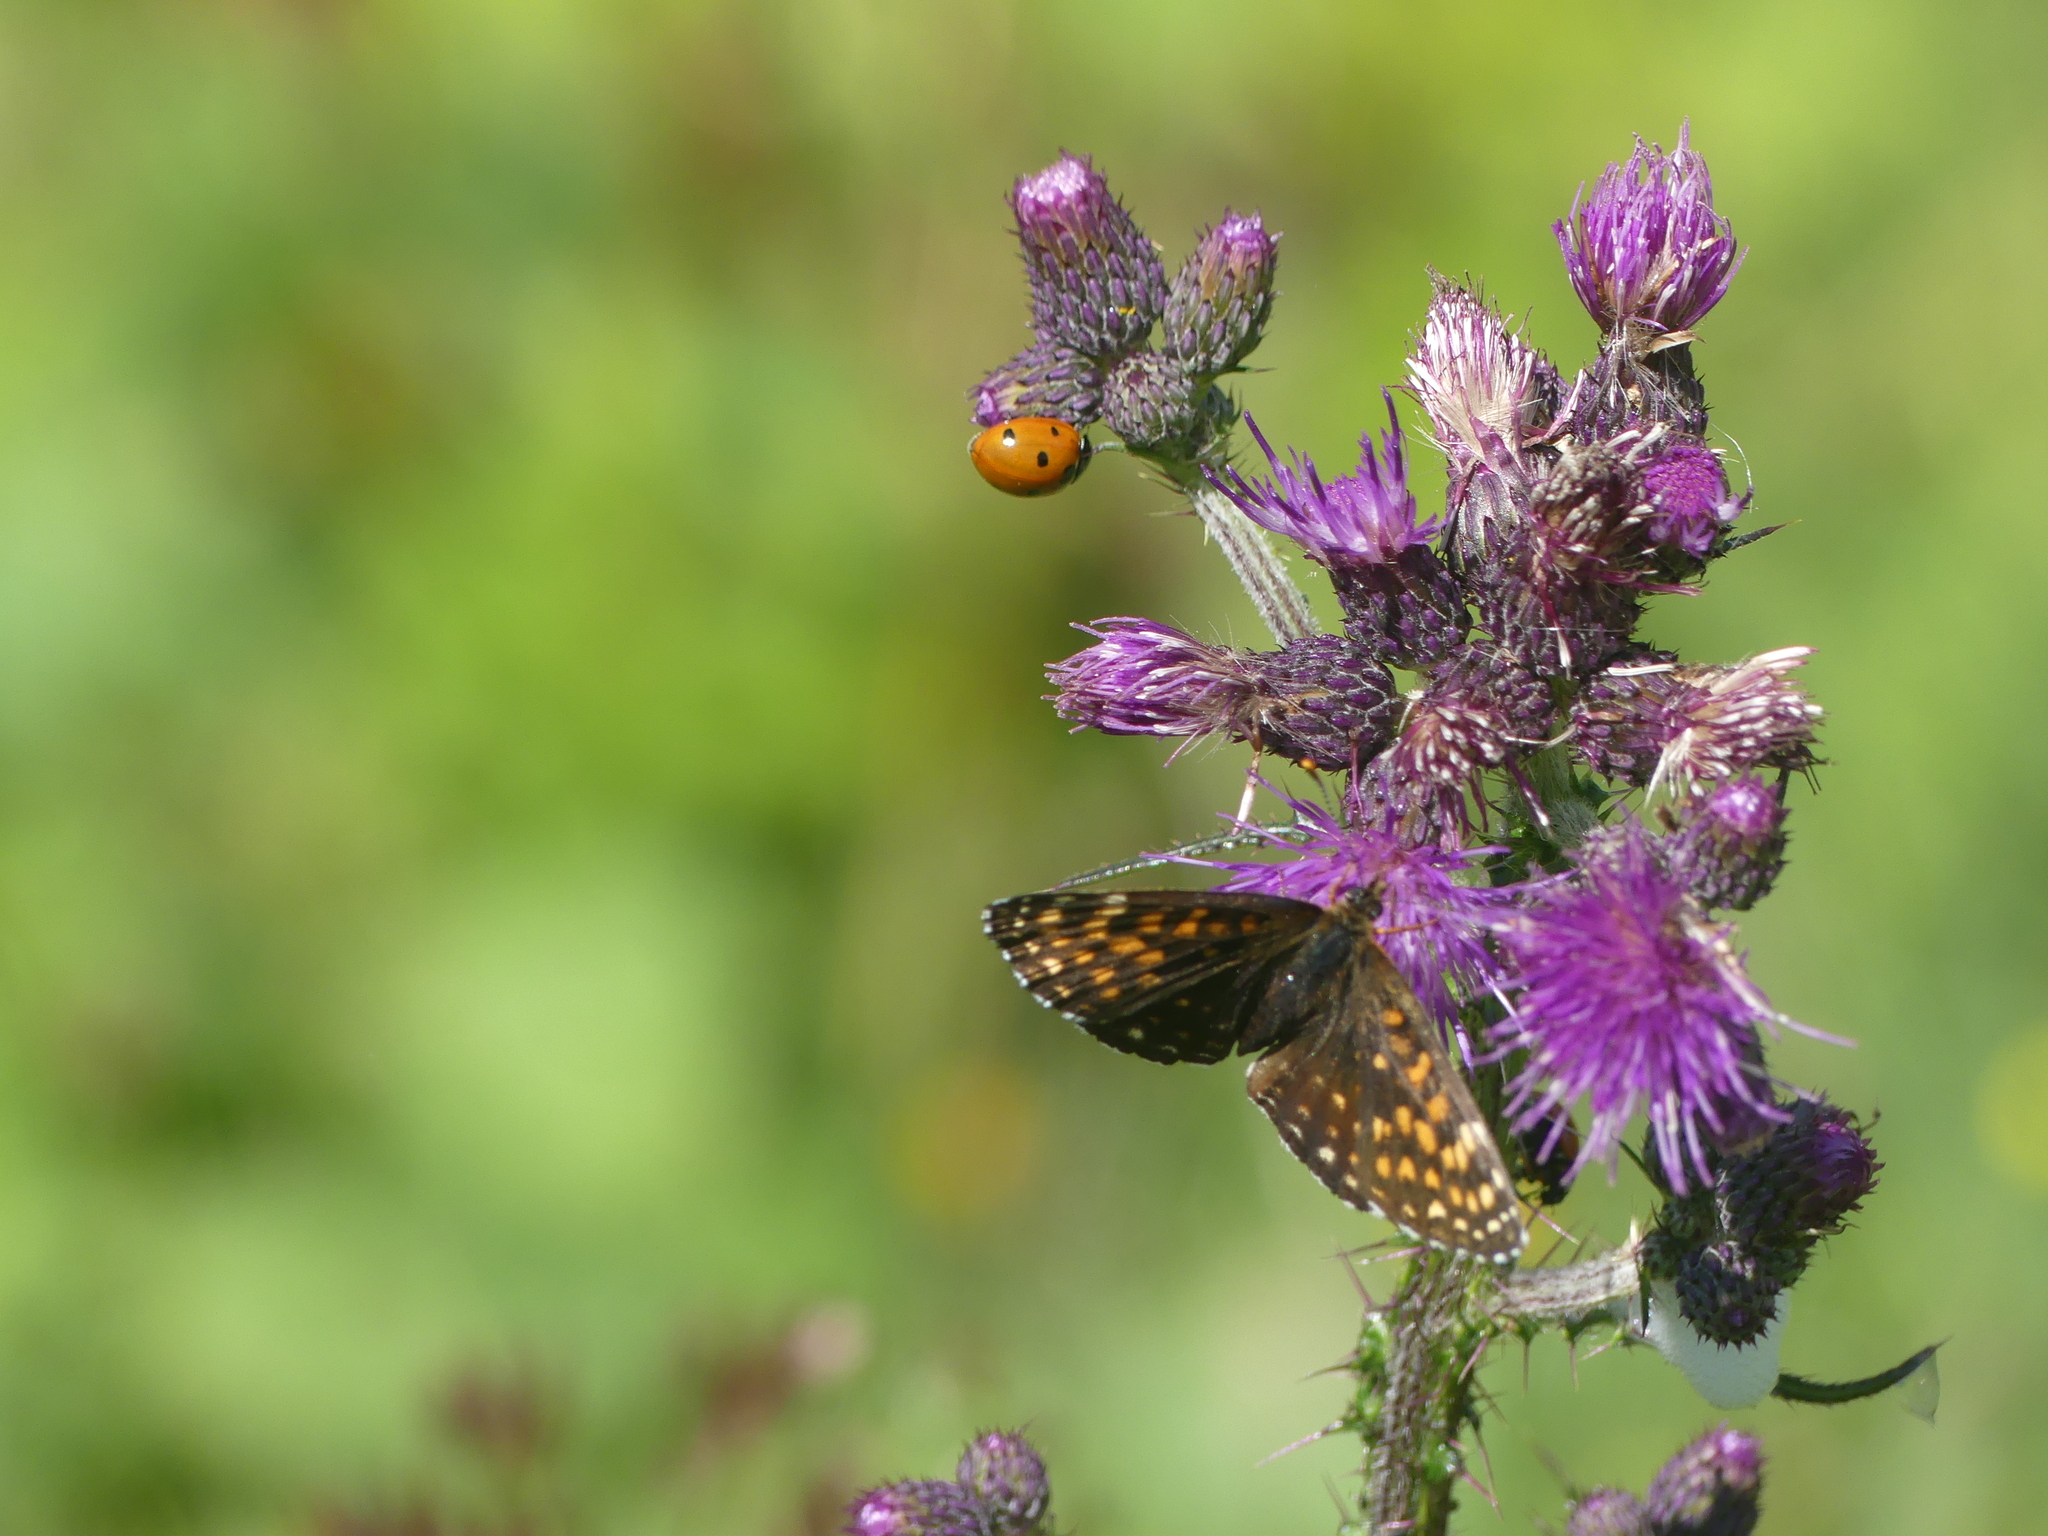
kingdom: Animalia
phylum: Arthropoda
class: Insecta
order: Coleoptera
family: Coccinellidae
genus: Coccinella
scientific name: Coccinella septempunctata
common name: Sevenspotted lady beetle
